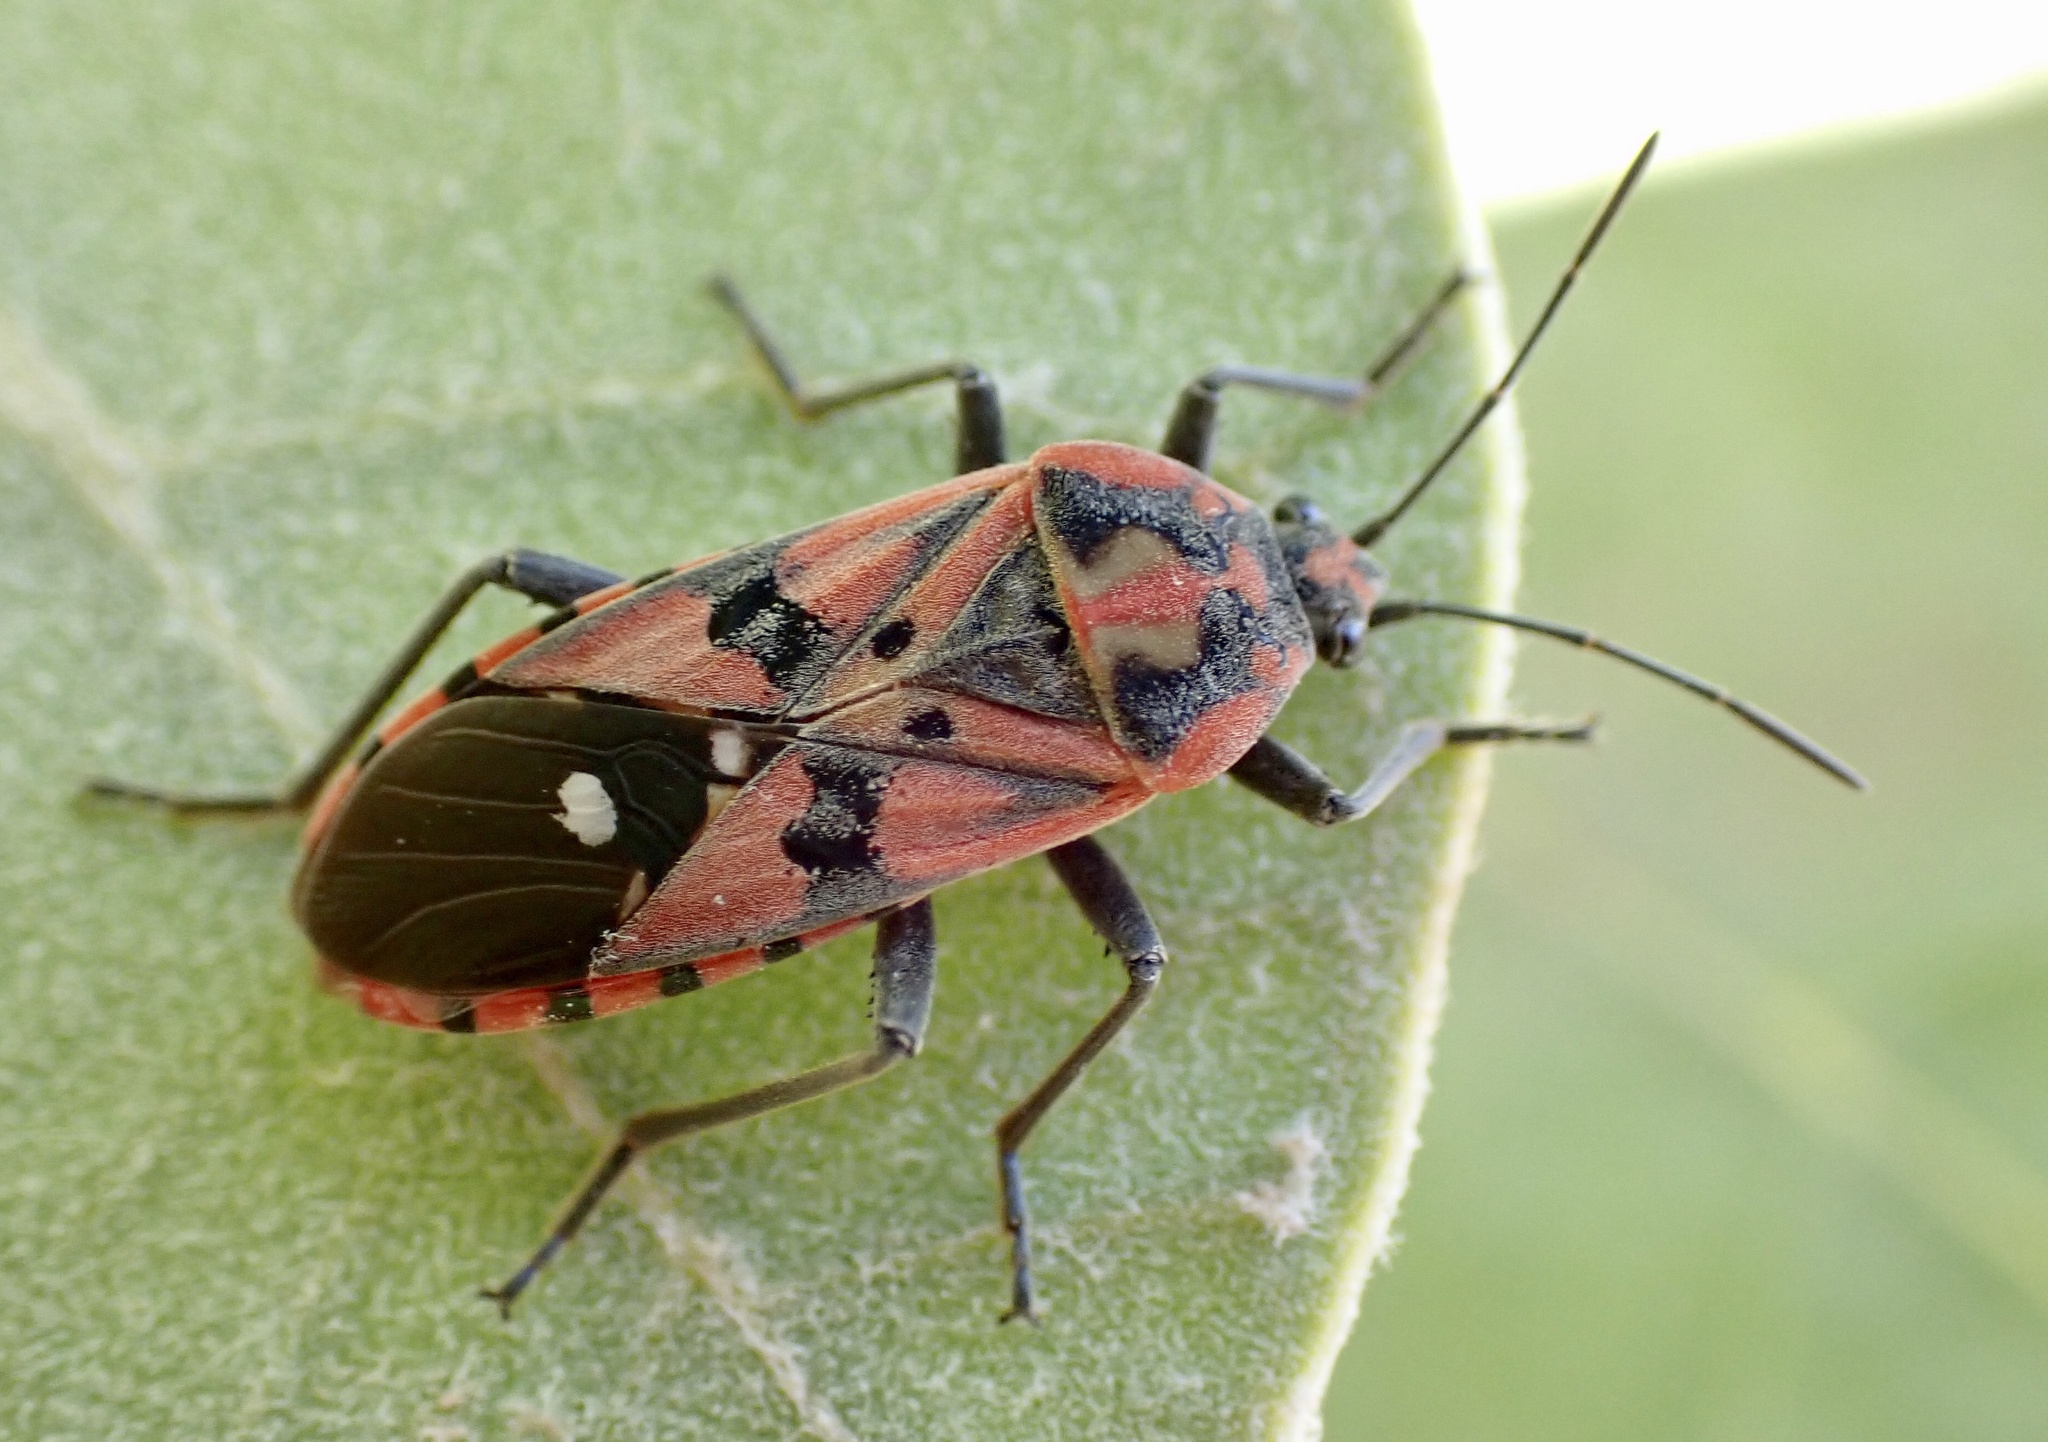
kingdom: Animalia
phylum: Arthropoda
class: Insecta
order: Hemiptera
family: Lygaeidae
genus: Spilostethus
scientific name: Spilostethus pandurus
